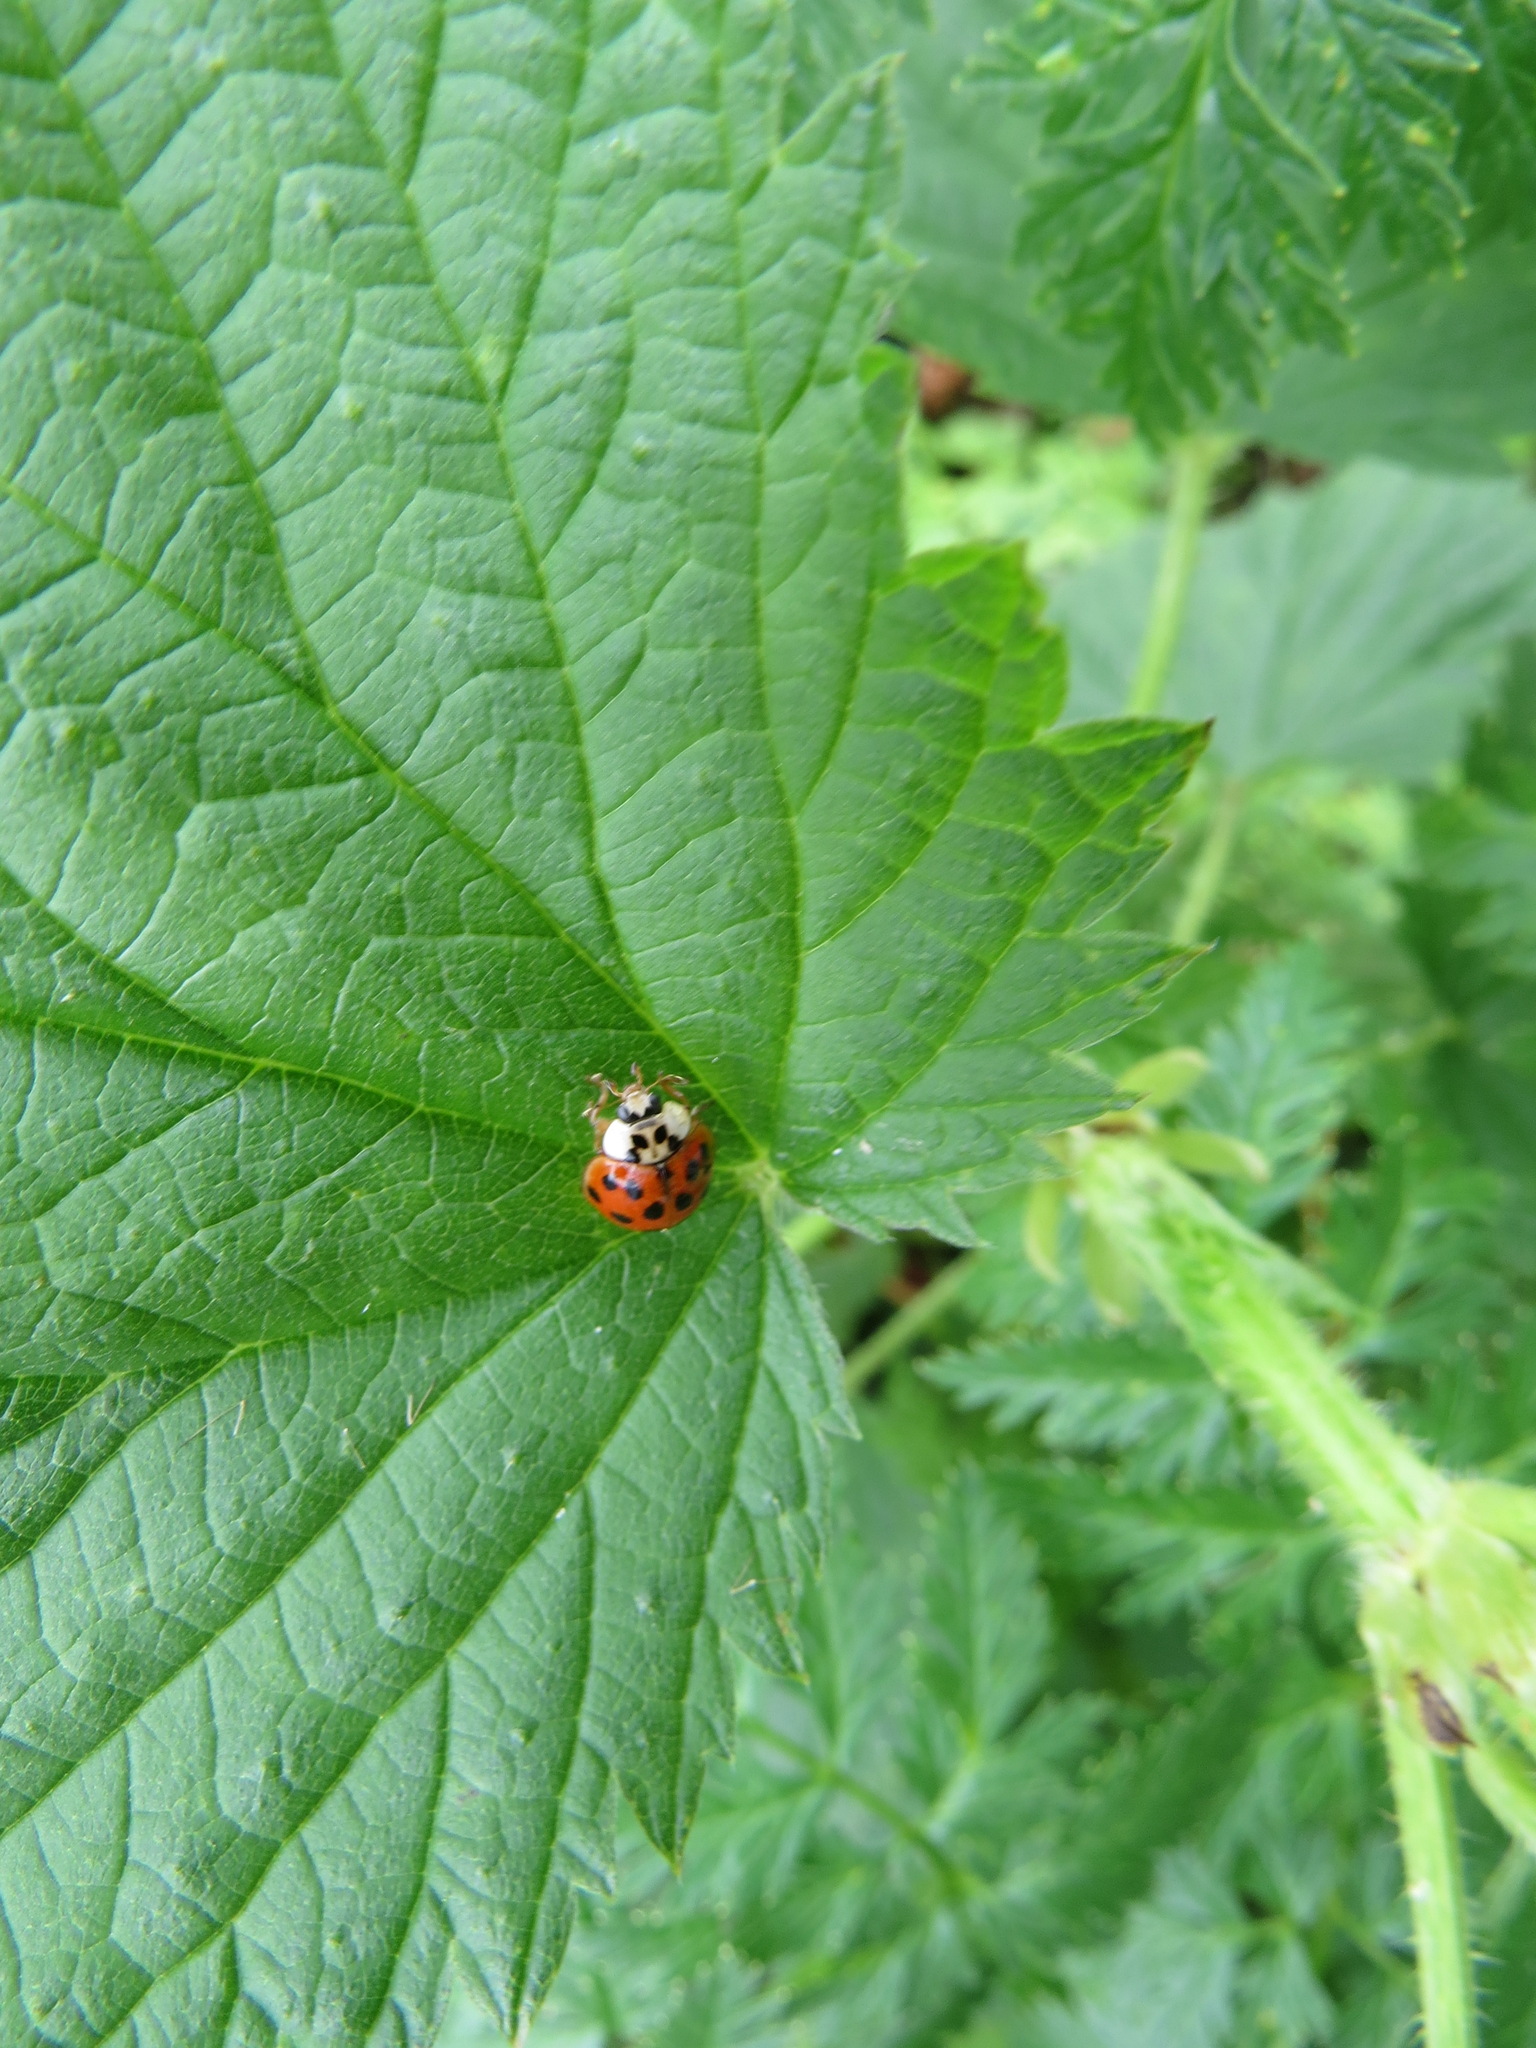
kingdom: Animalia
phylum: Arthropoda
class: Insecta
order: Coleoptera
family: Coccinellidae
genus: Harmonia
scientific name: Harmonia axyridis
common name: Harlequin ladybird
